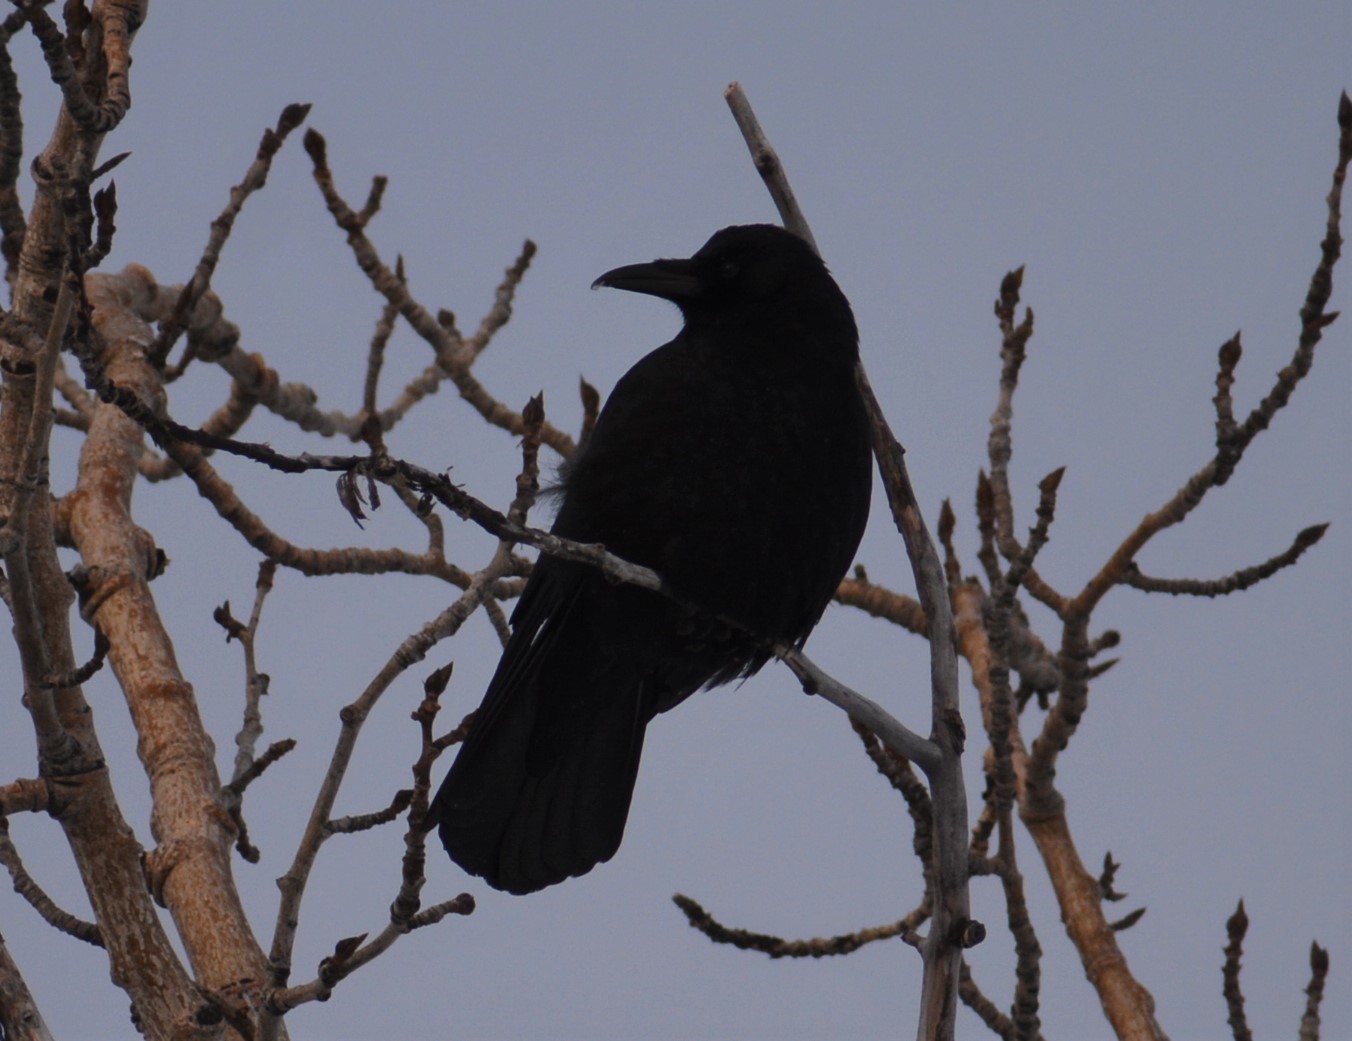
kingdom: Animalia
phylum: Chordata
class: Aves
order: Passeriformes
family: Corvidae
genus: Corvus
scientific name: Corvus brachyrhynchos
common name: American crow
